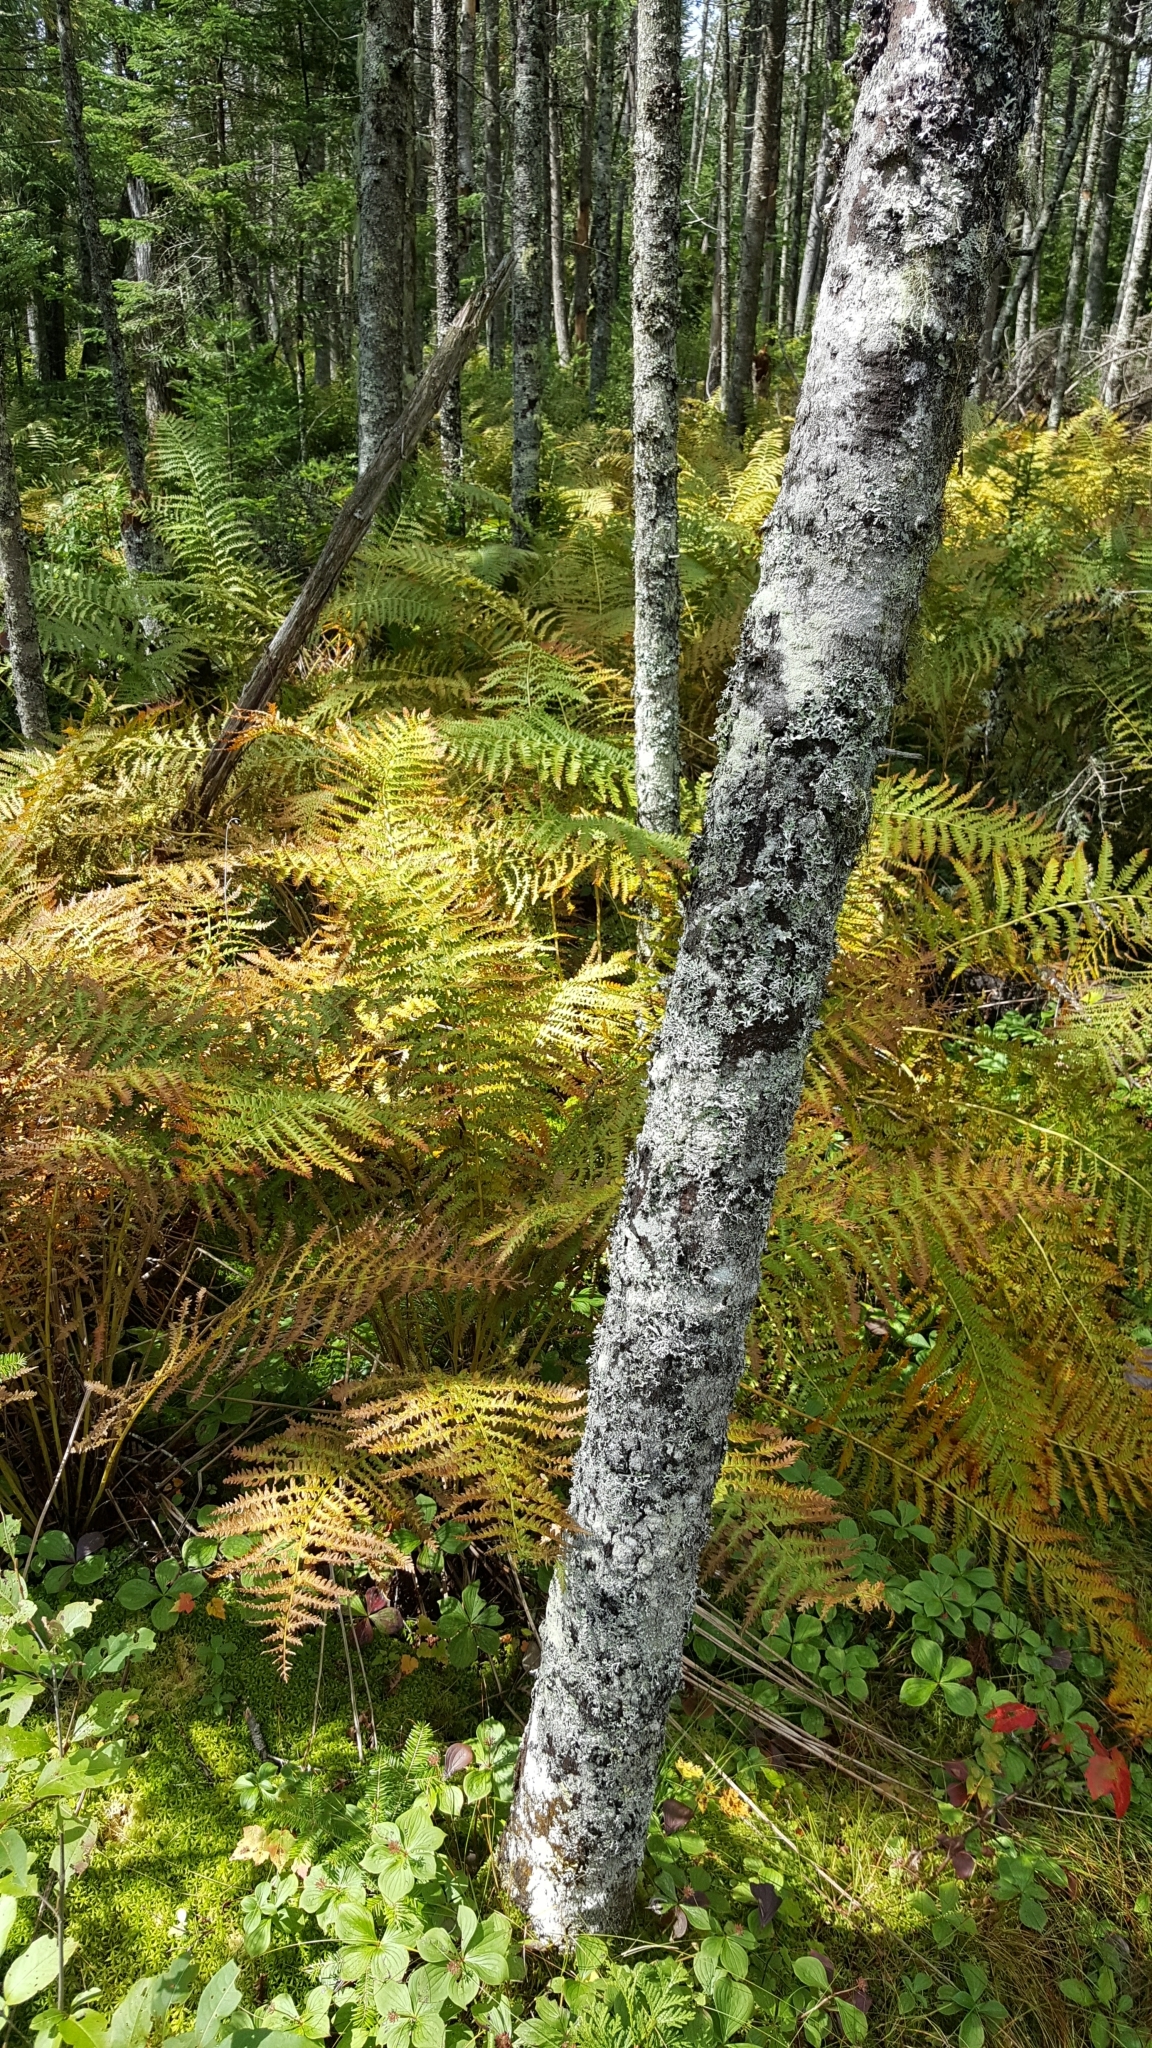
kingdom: Plantae
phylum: Tracheophyta
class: Polypodiopsida
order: Osmundales
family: Osmundaceae
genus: Osmundastrum
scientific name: Osmundastrum cinnamomeum
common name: Cinnamon fern
